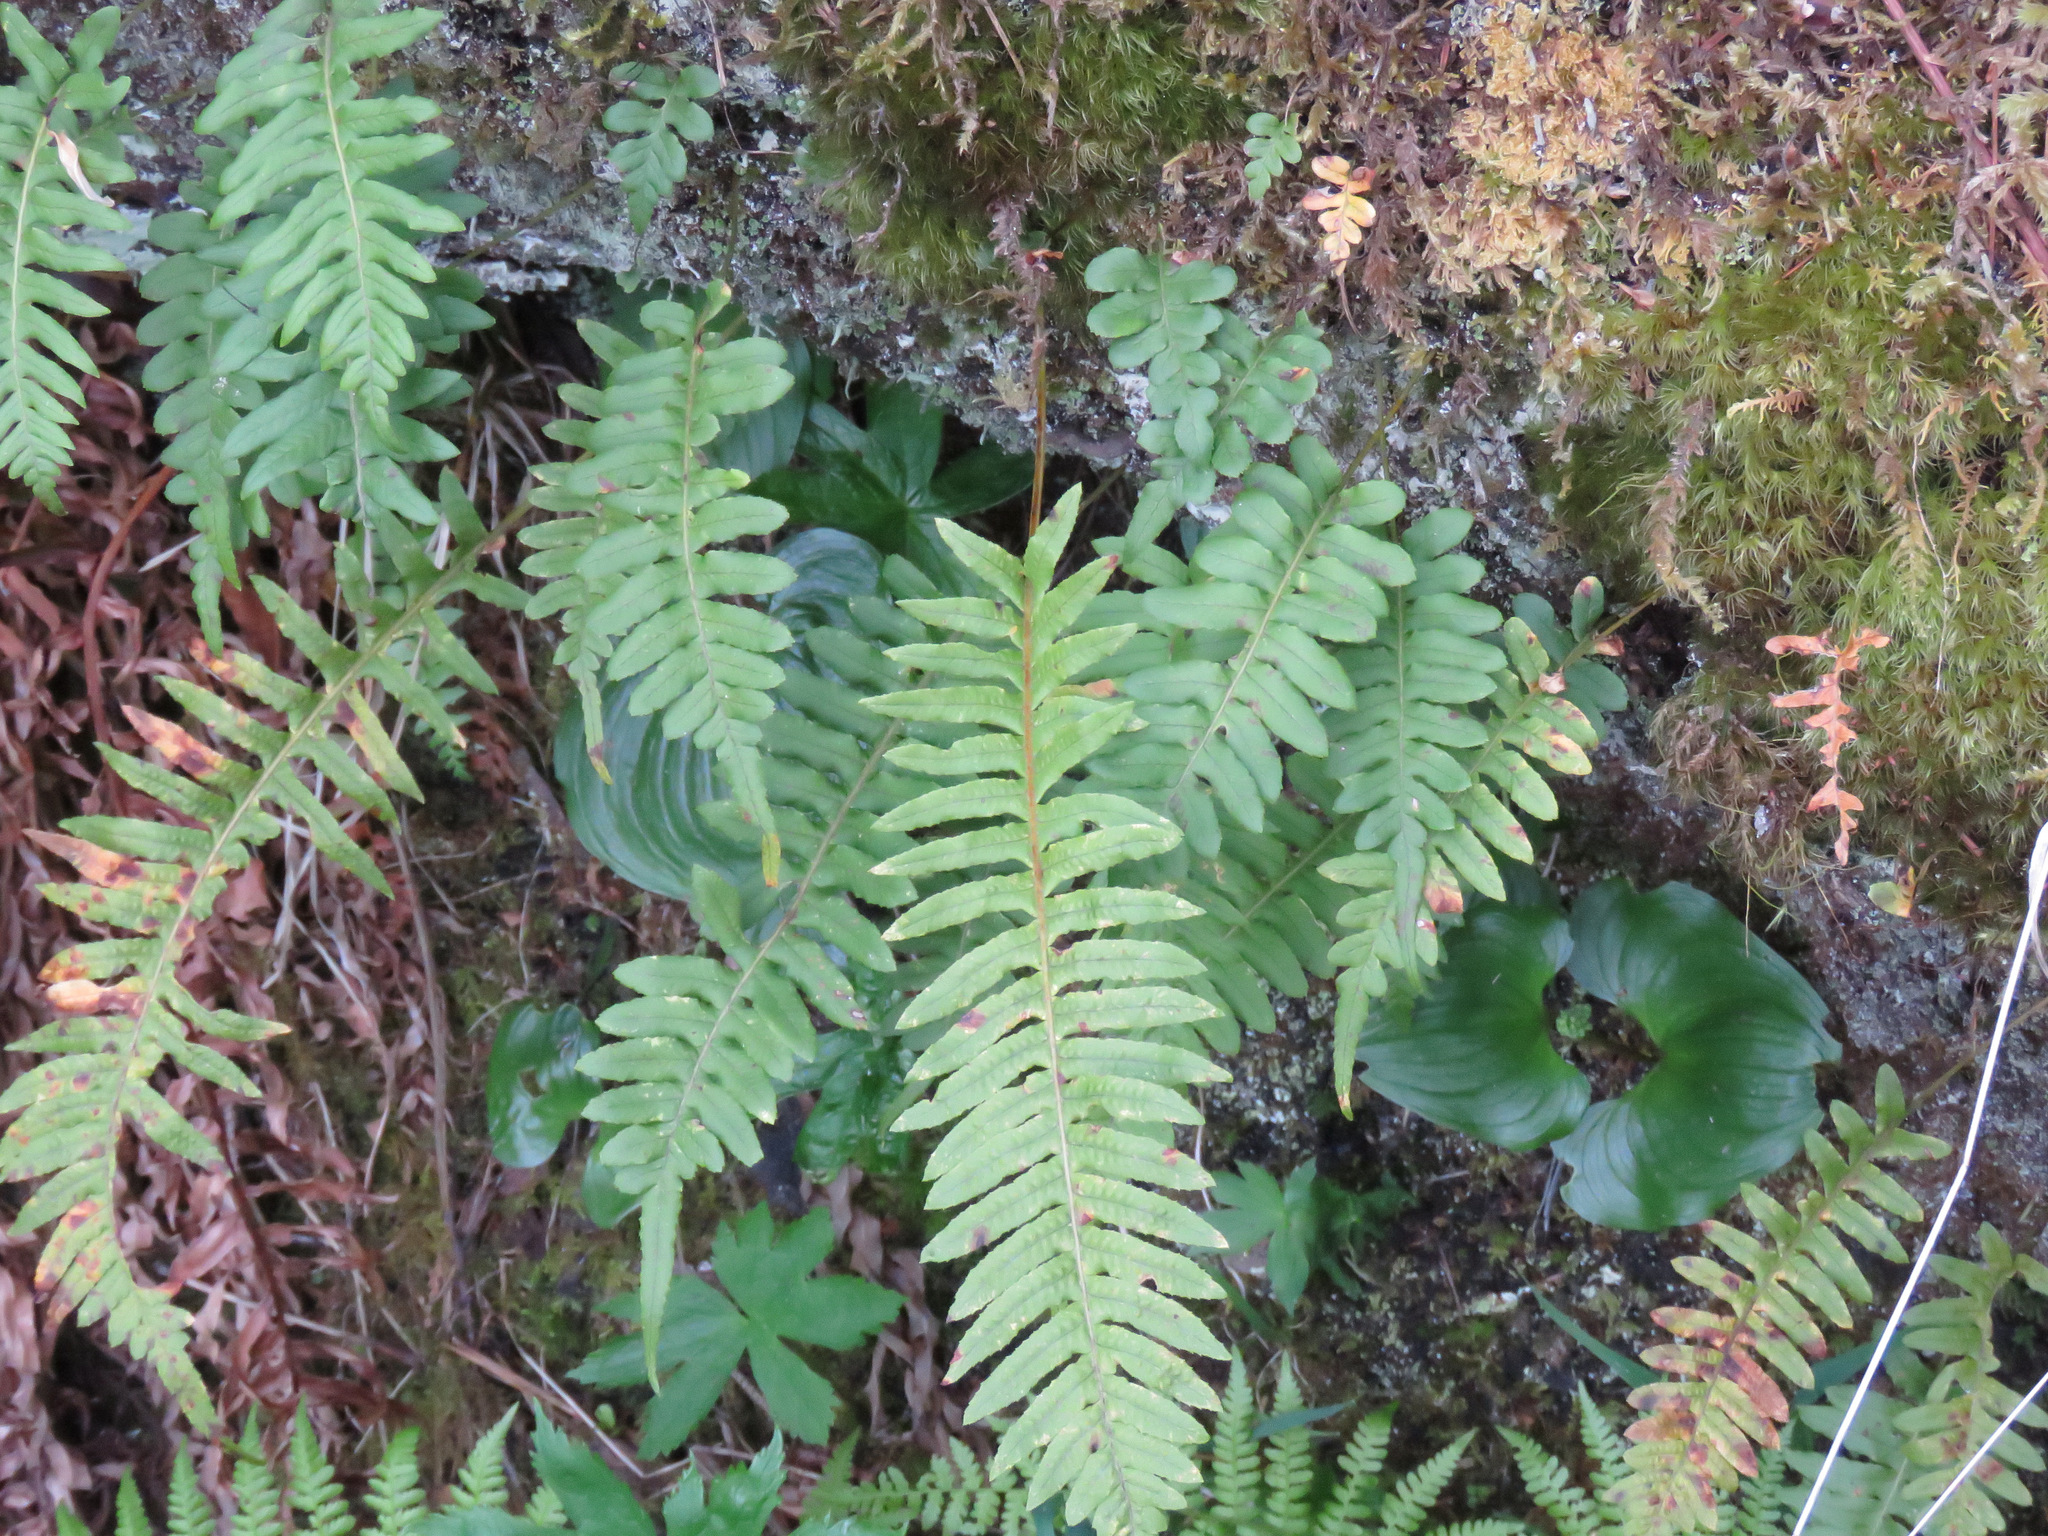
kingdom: Plantae
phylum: Tracheophyta
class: Polypodiopsida
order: Polypodiales
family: Polypodiaceae
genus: Polypodium
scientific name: Polypodium glycyrrhiza
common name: Licorice fern
